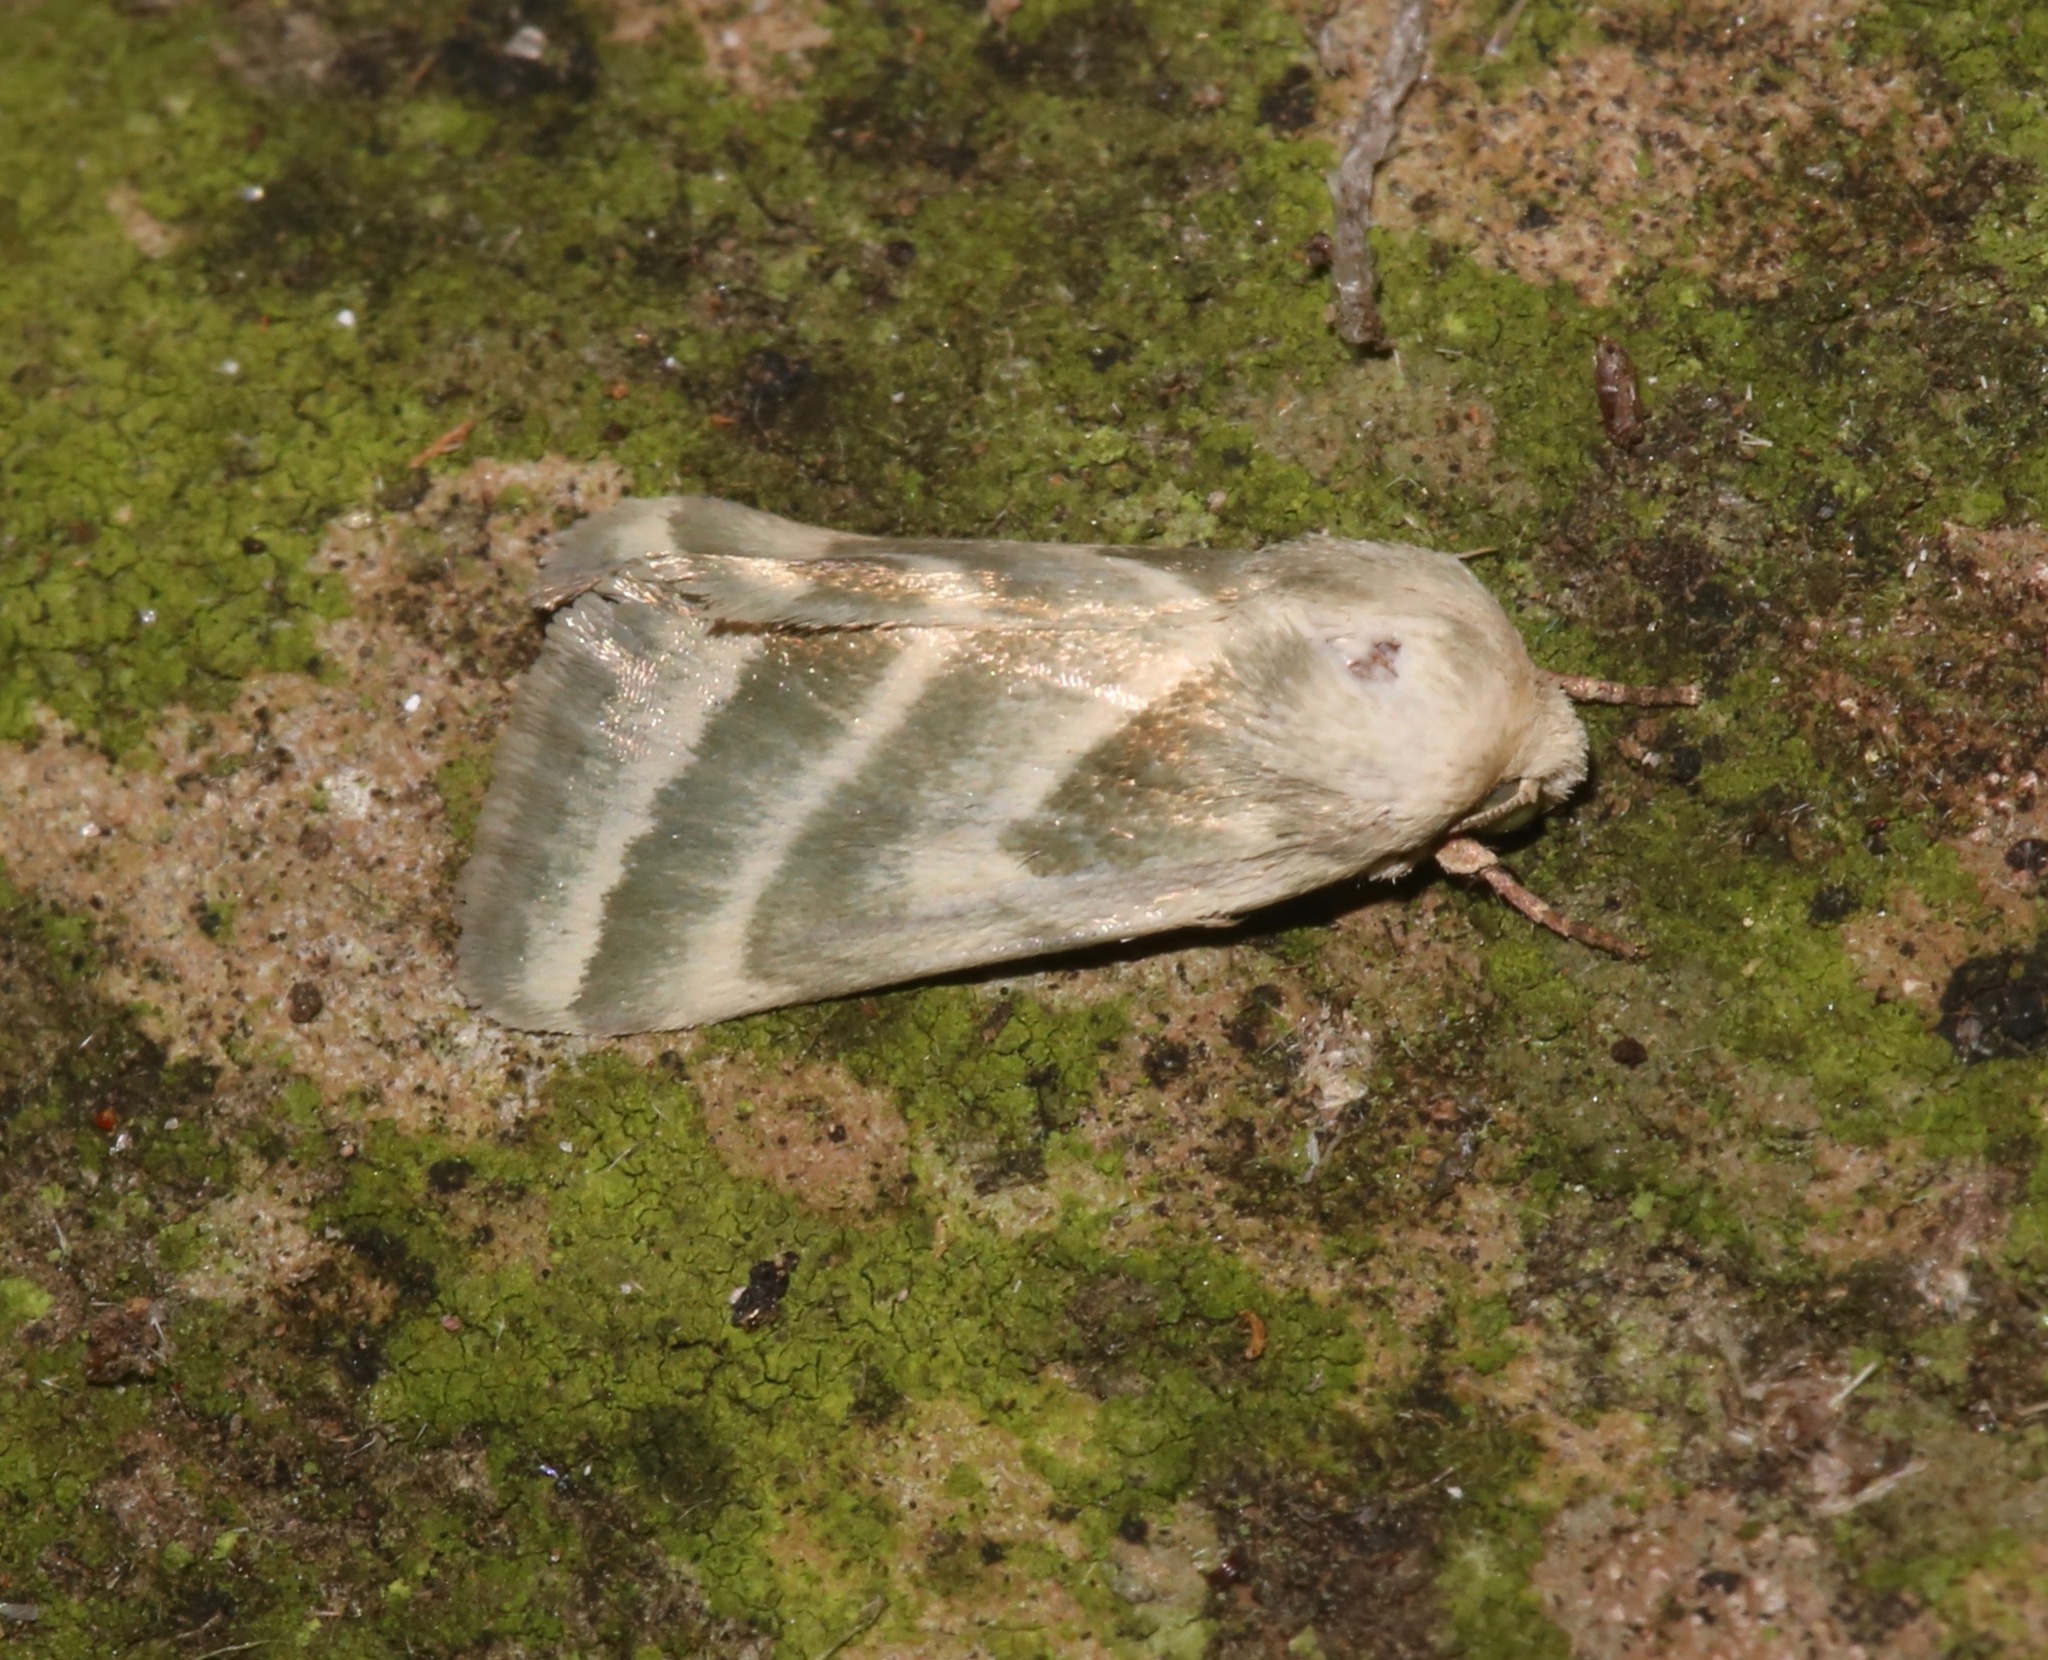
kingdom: Animalia
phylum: Arthropoda
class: Insecta
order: Lepidoptera
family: Noctuidae
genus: Schinia
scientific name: Schinia trifascia
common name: Three-lined flower moth
